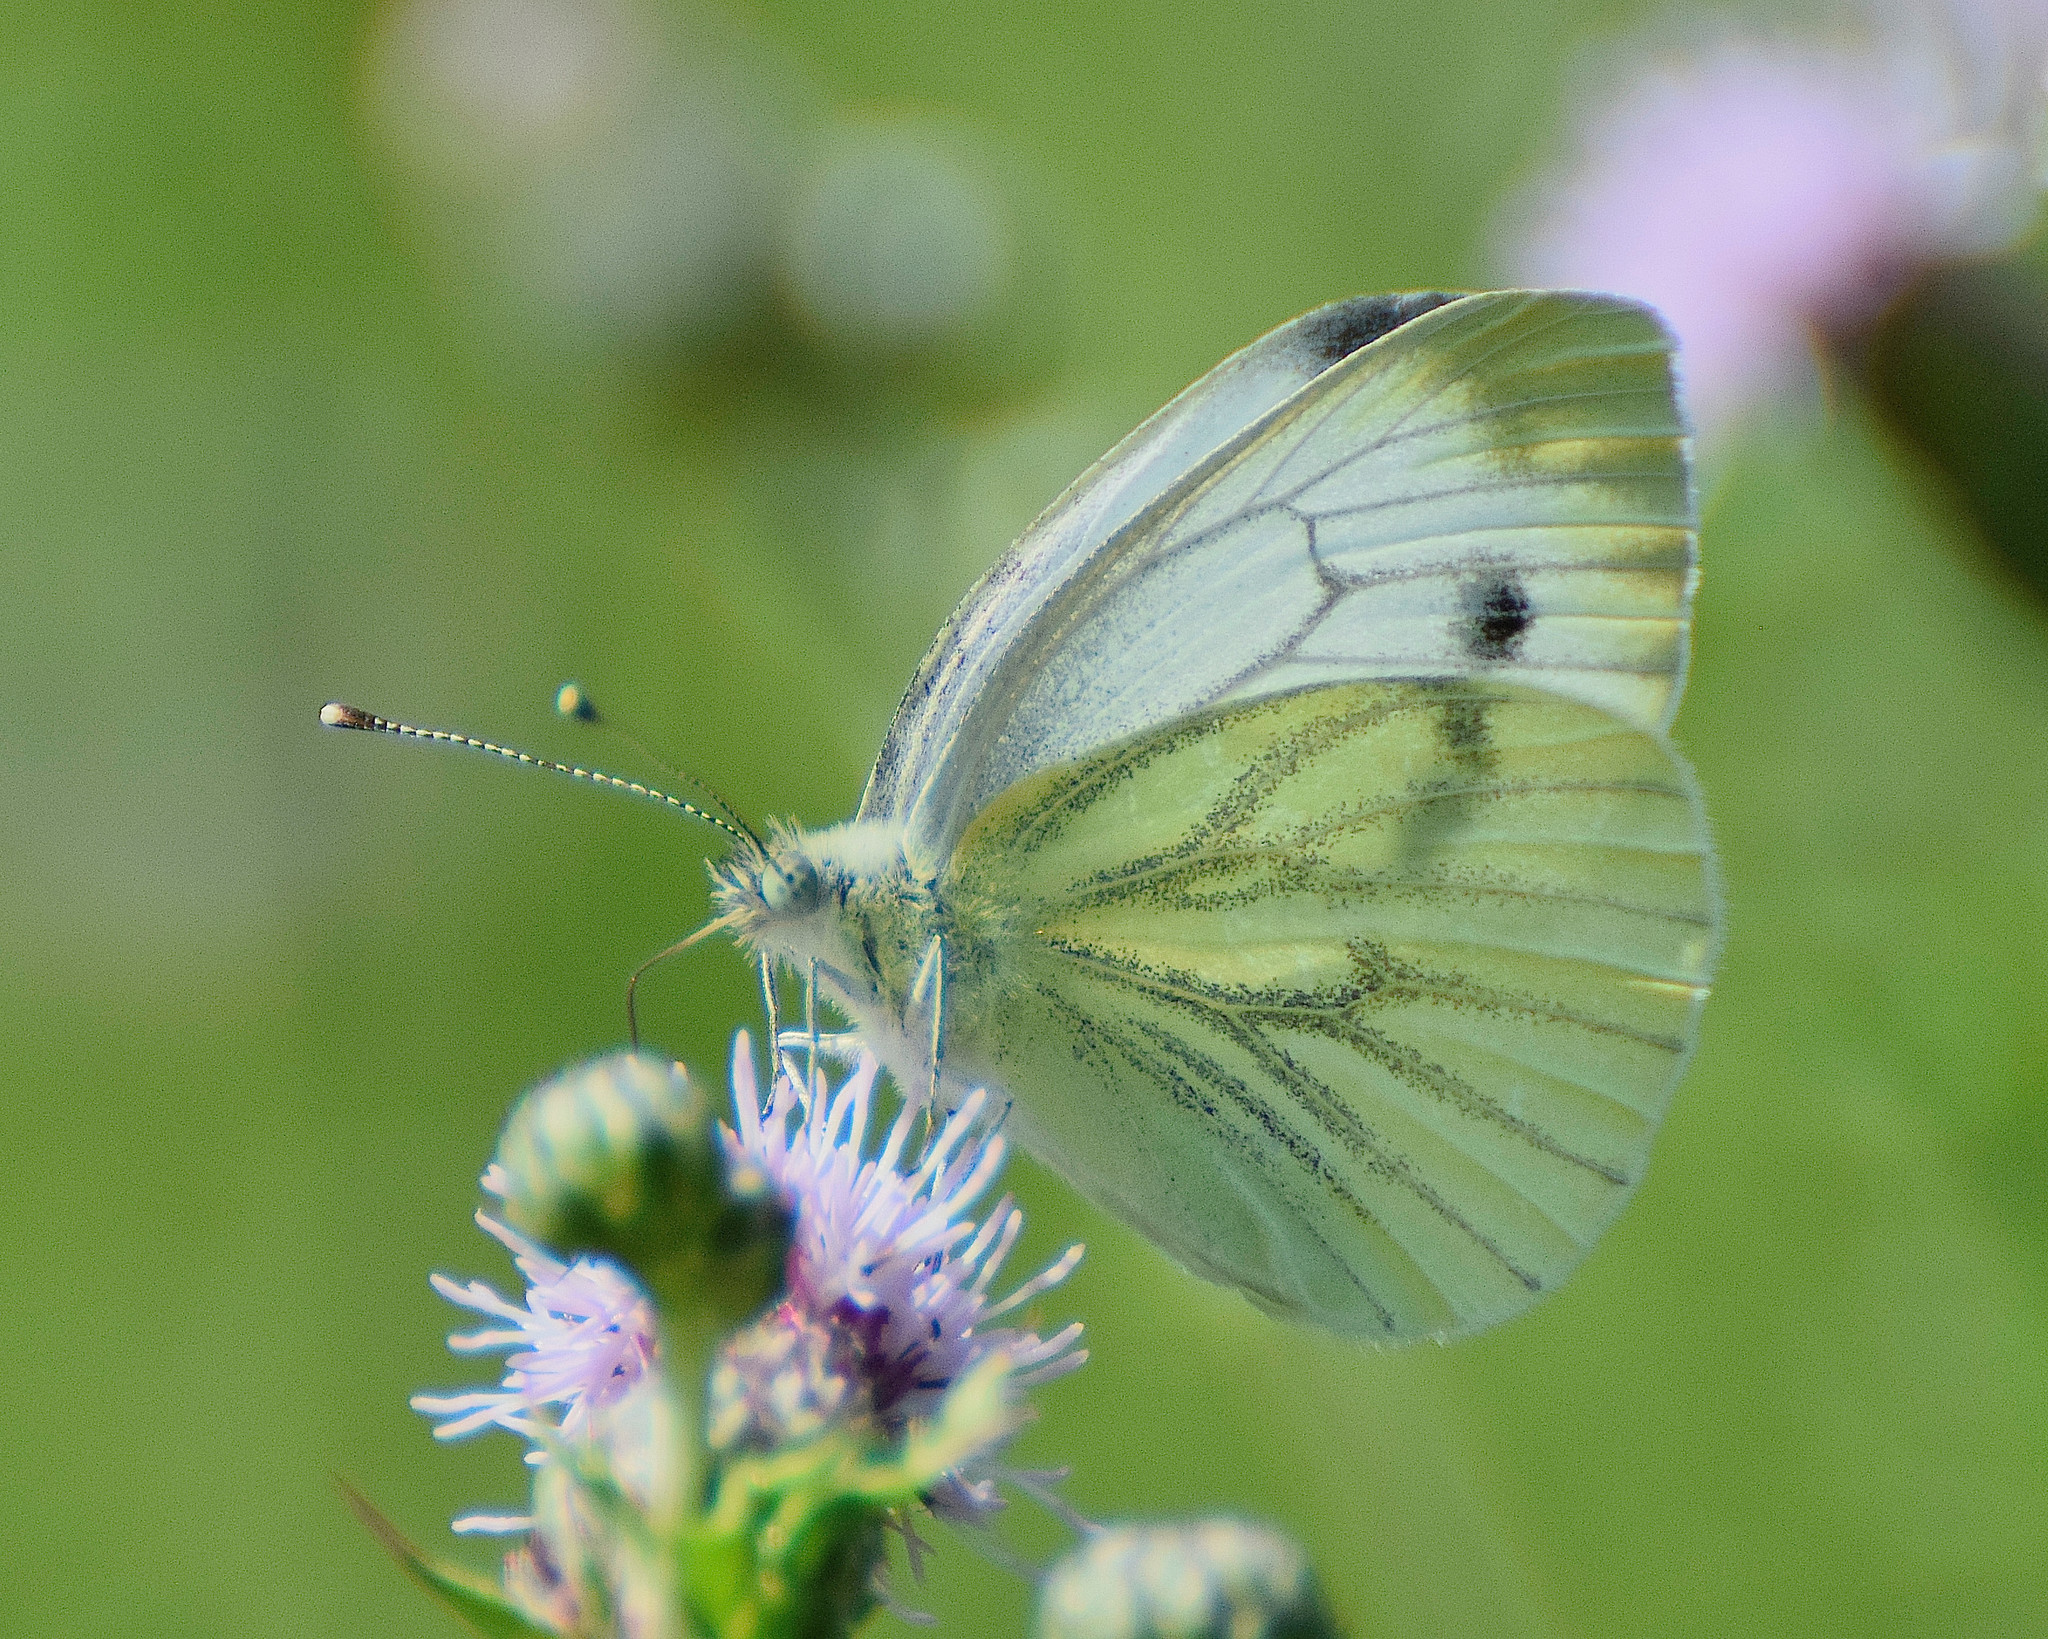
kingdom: Animalia
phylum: Arthropoda
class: Insecta
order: Lepidoptera
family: Pieridae
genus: Pieris
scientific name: Pieris napi
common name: Green-veined white
